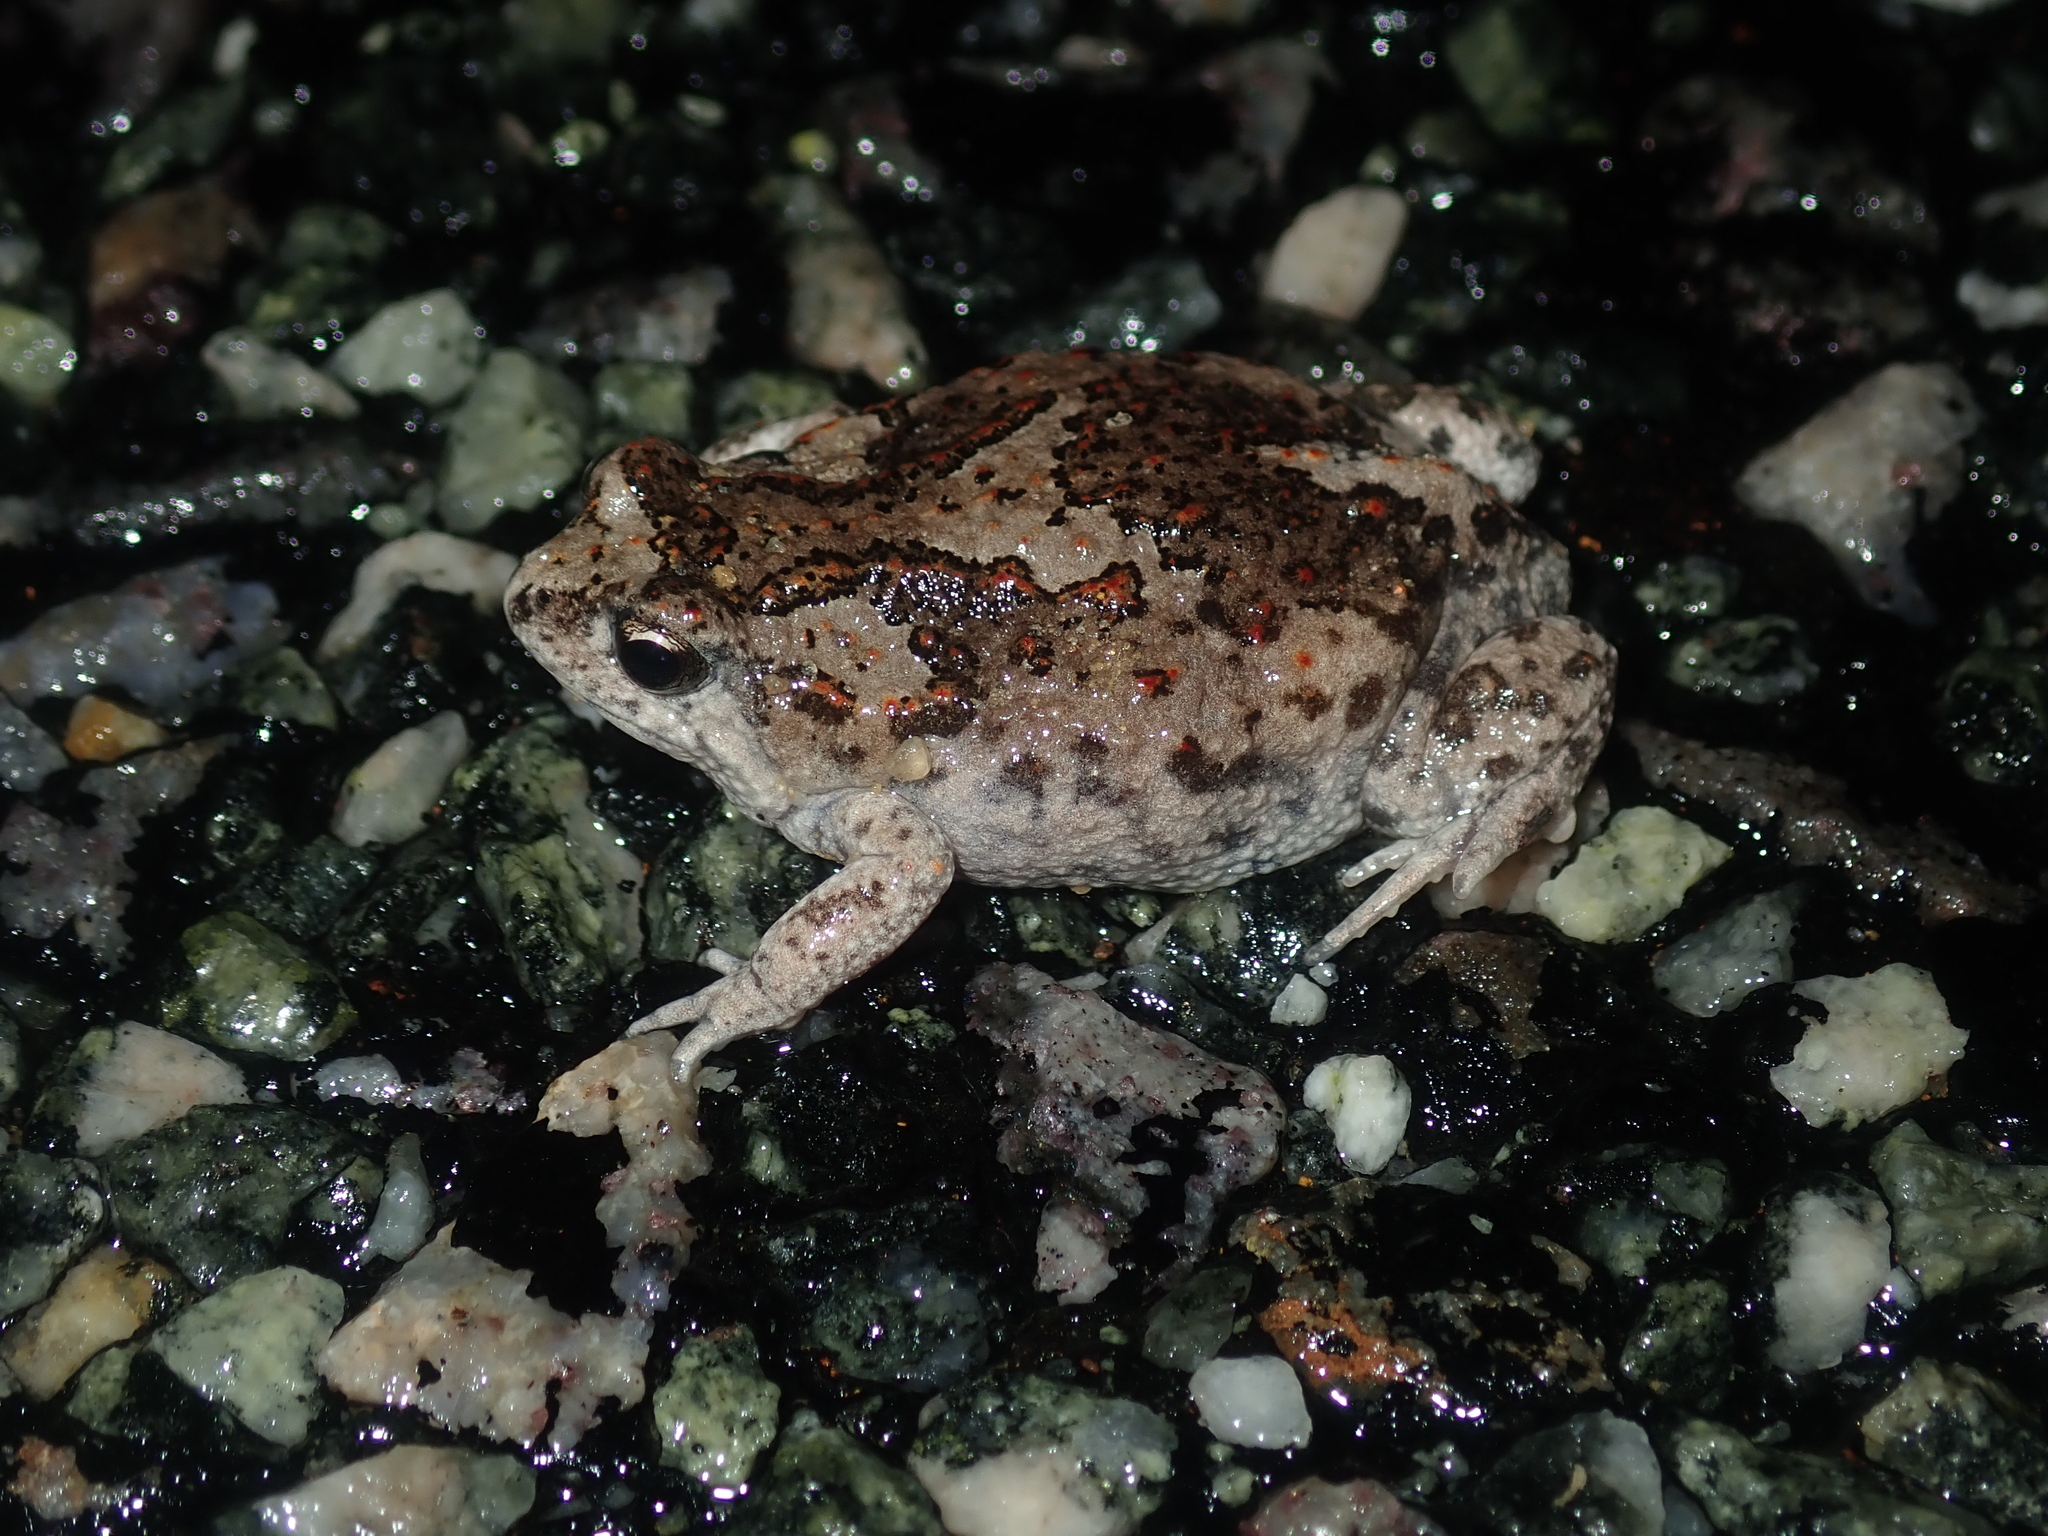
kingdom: Animalia
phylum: Chordata
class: Amphibia
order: Anura
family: Myobatrachidae
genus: Pseudophryne
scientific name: Pseudophryne guentheri
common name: Günther’s toadlet
